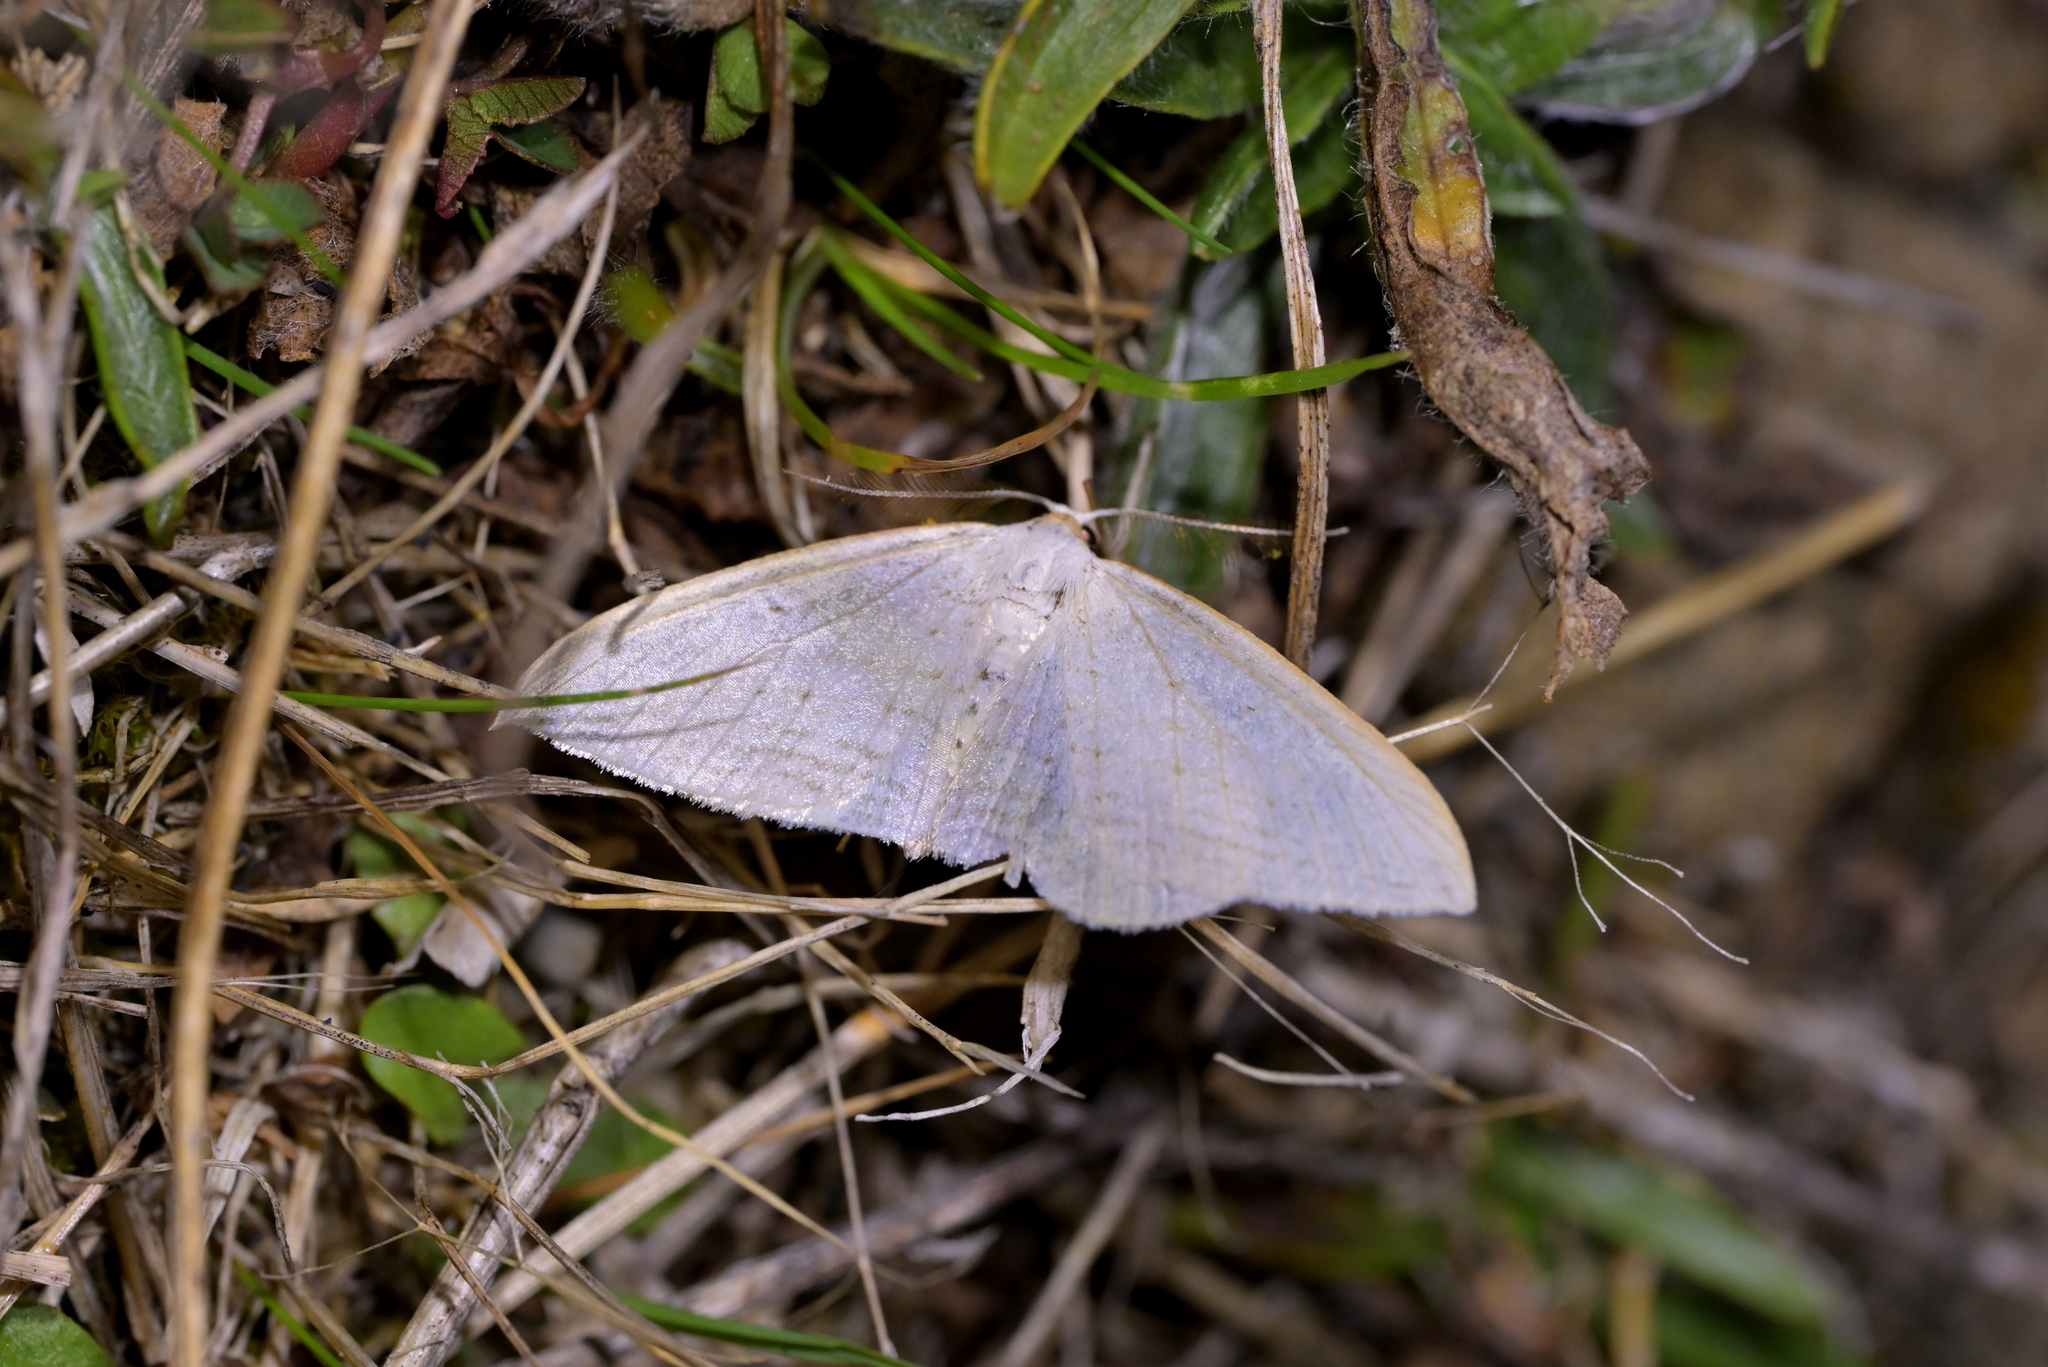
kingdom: Animalia
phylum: Arthropoda
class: Insecta
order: Lepidoptera
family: Geometridae
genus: Orthoclydon
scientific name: Orthoclydon praefectata
